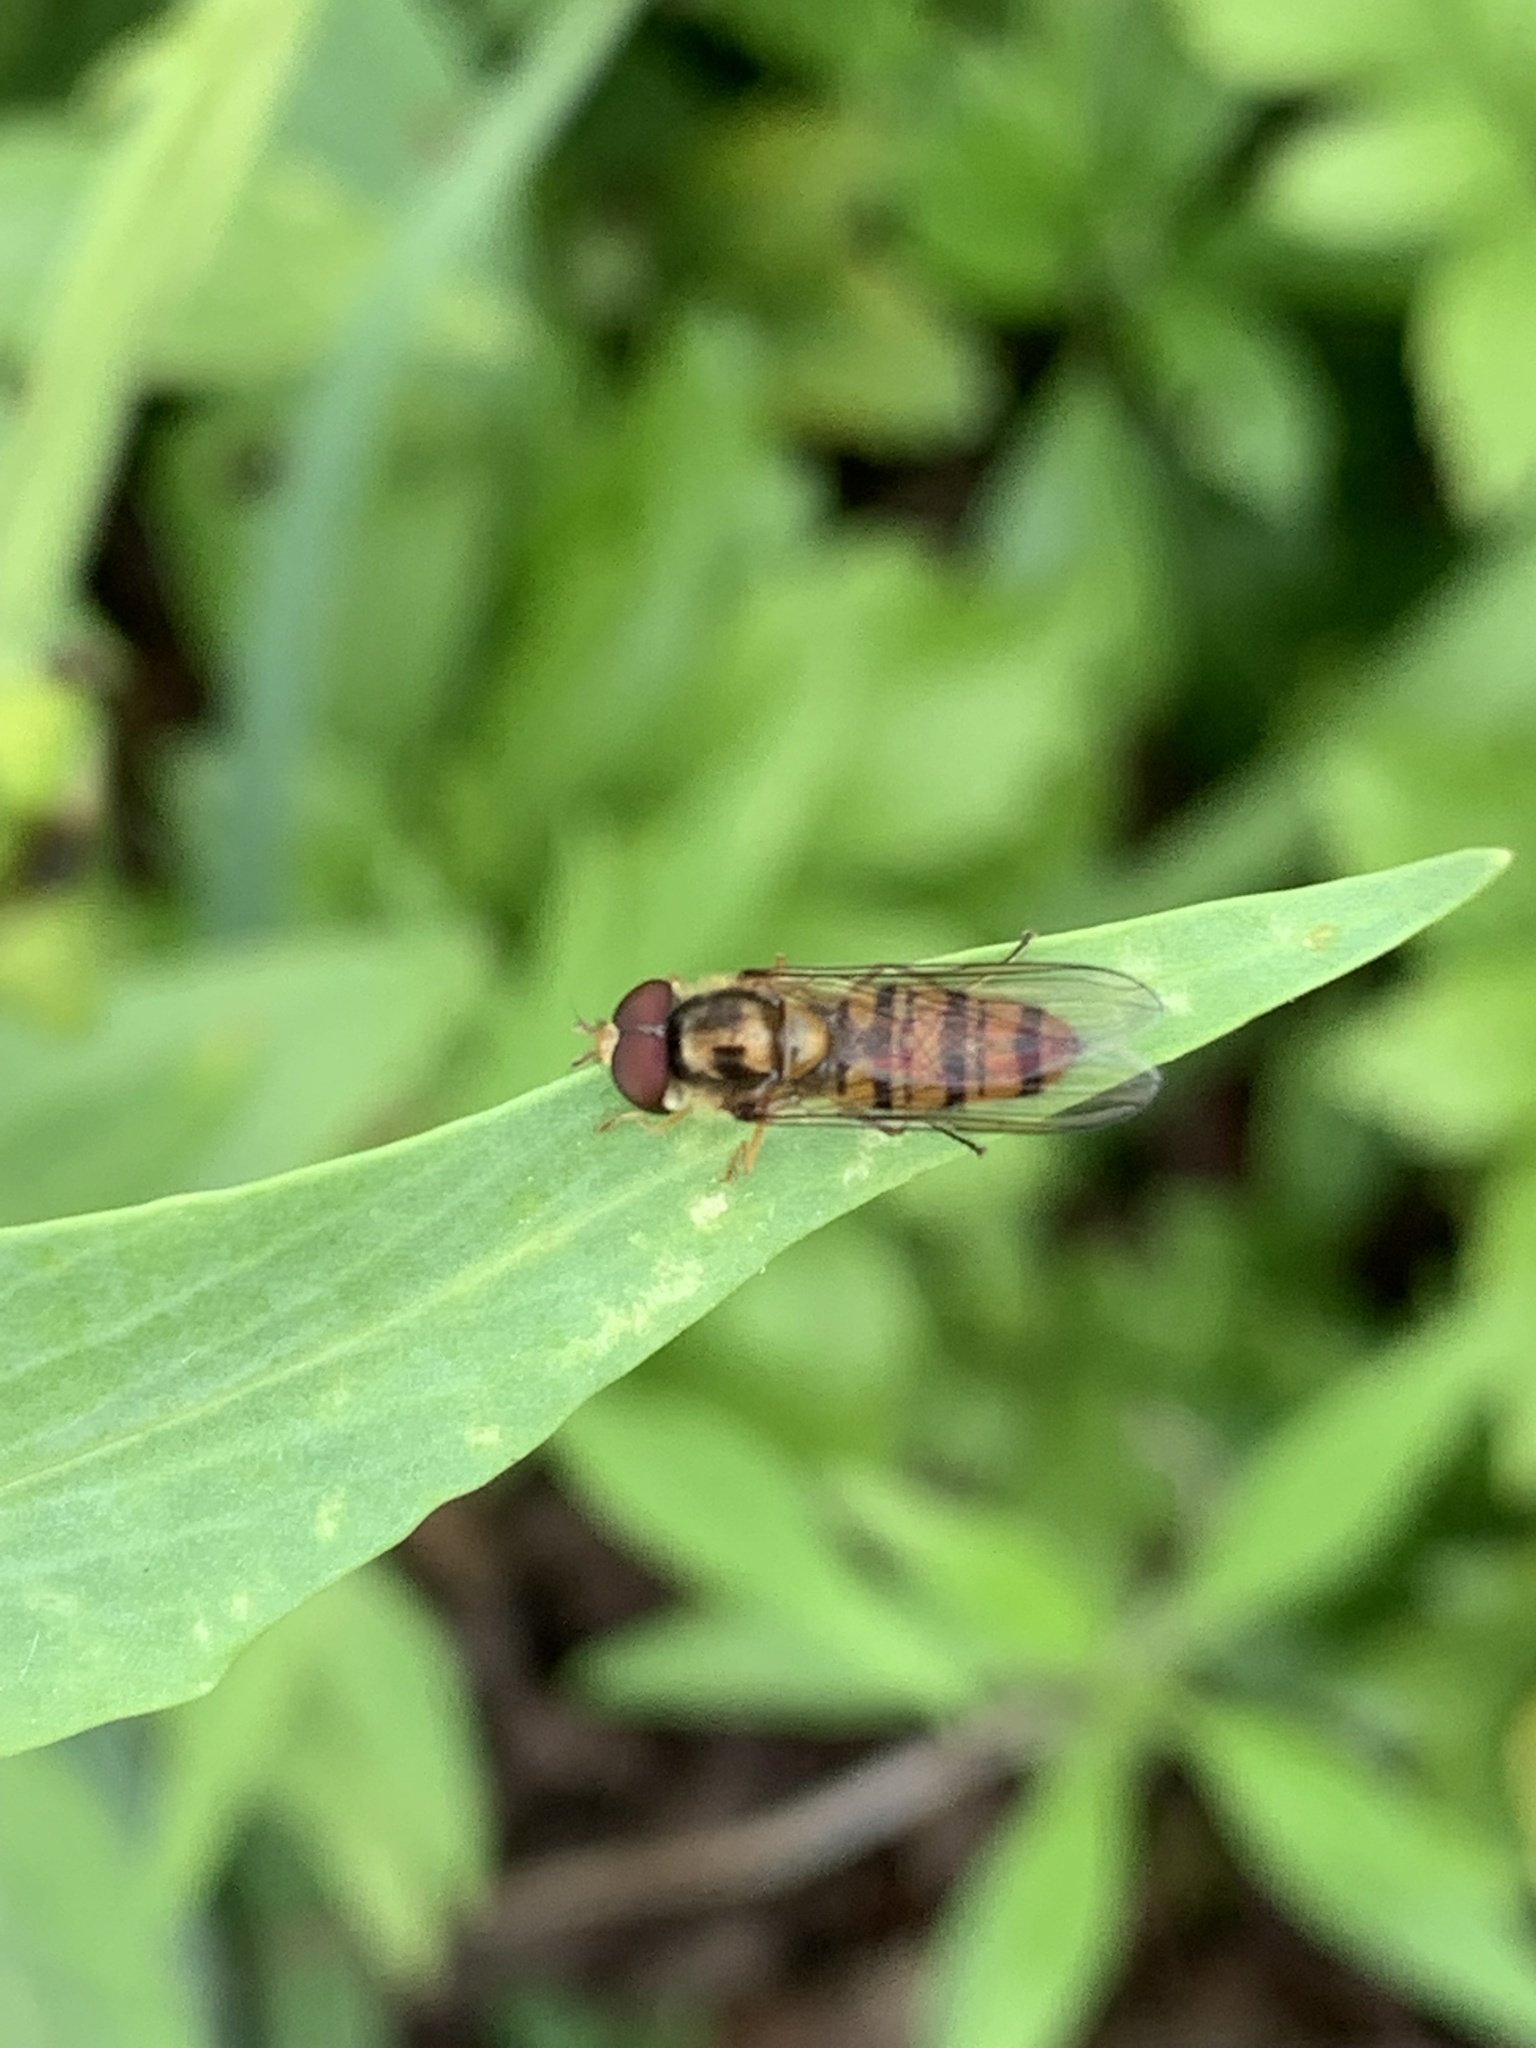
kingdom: Animalia
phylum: Arthropoda
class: Insecta
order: Diptera
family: Syrphidae
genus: Episyrphus
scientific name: Episyrphus balteatus
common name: Marmalade hoverfly
